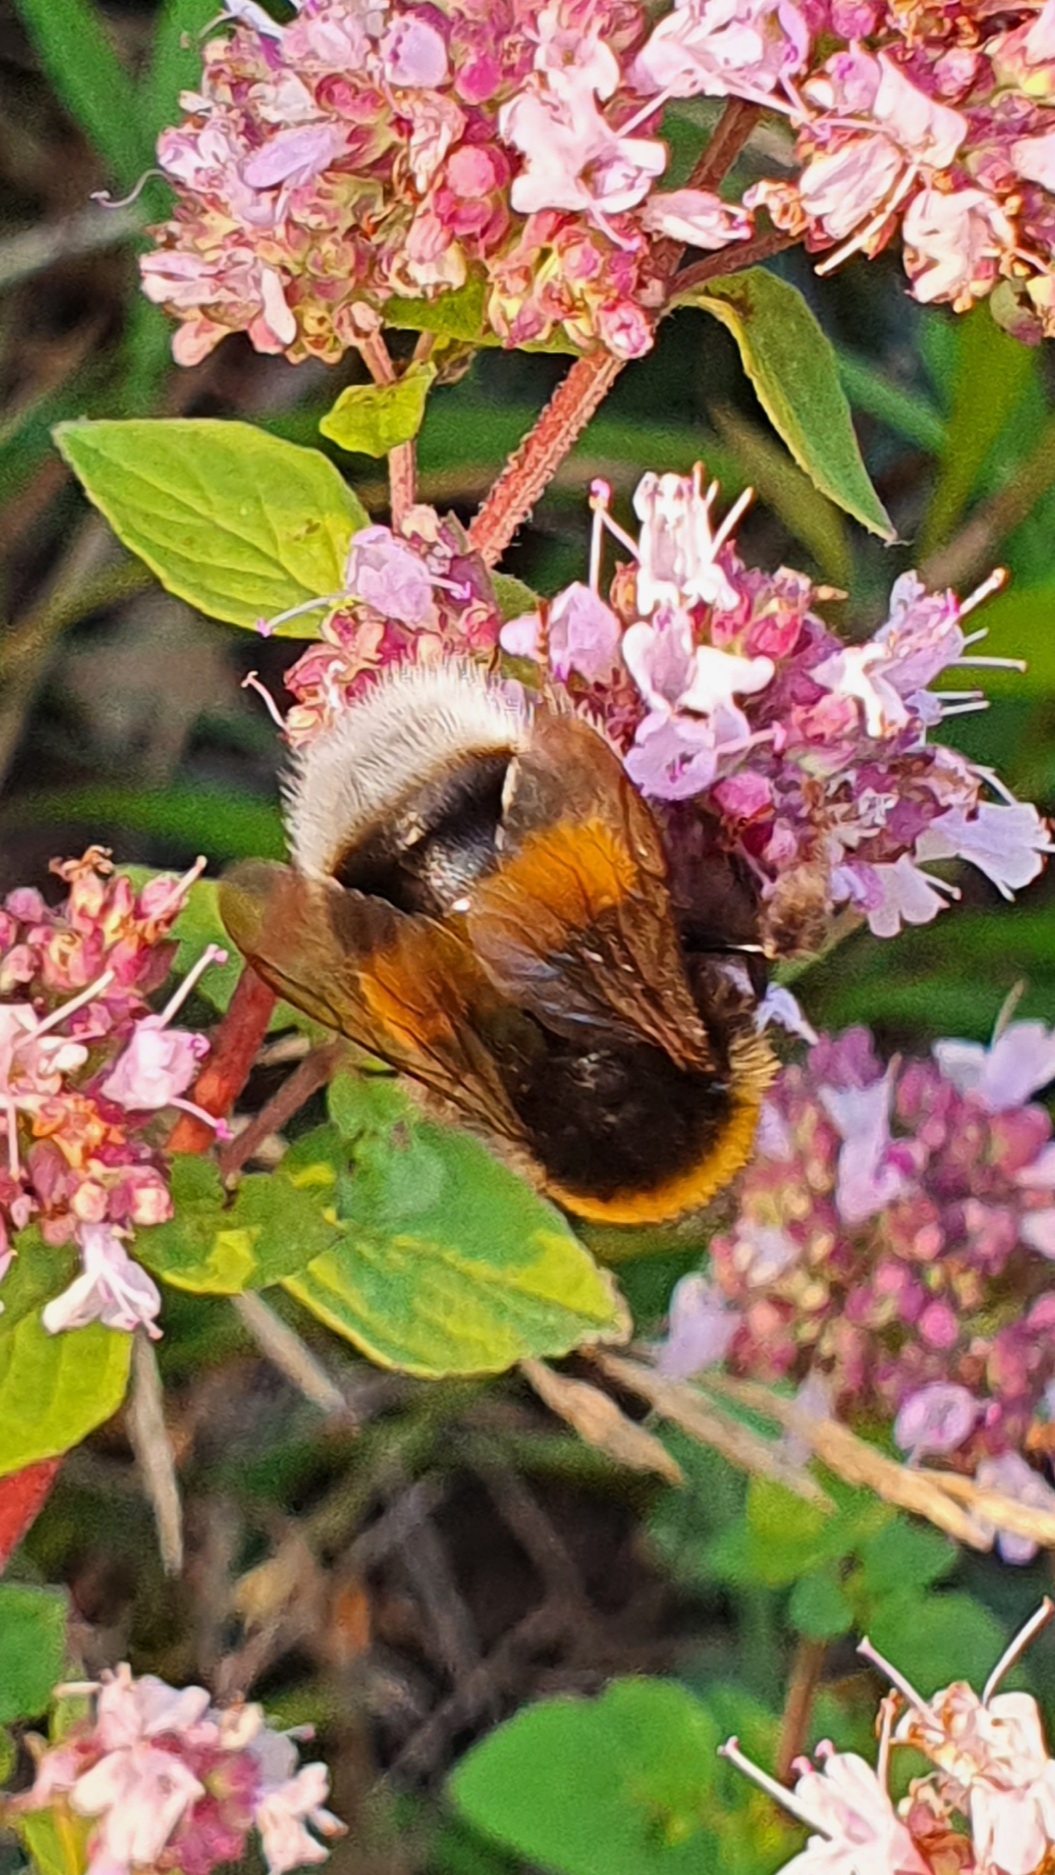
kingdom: Animalia
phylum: Arthropoda
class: Insecta
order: Hymenoptera
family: Apidae
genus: Bombus
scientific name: Bombus terrestris
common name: Buff-tailed bumblebee
